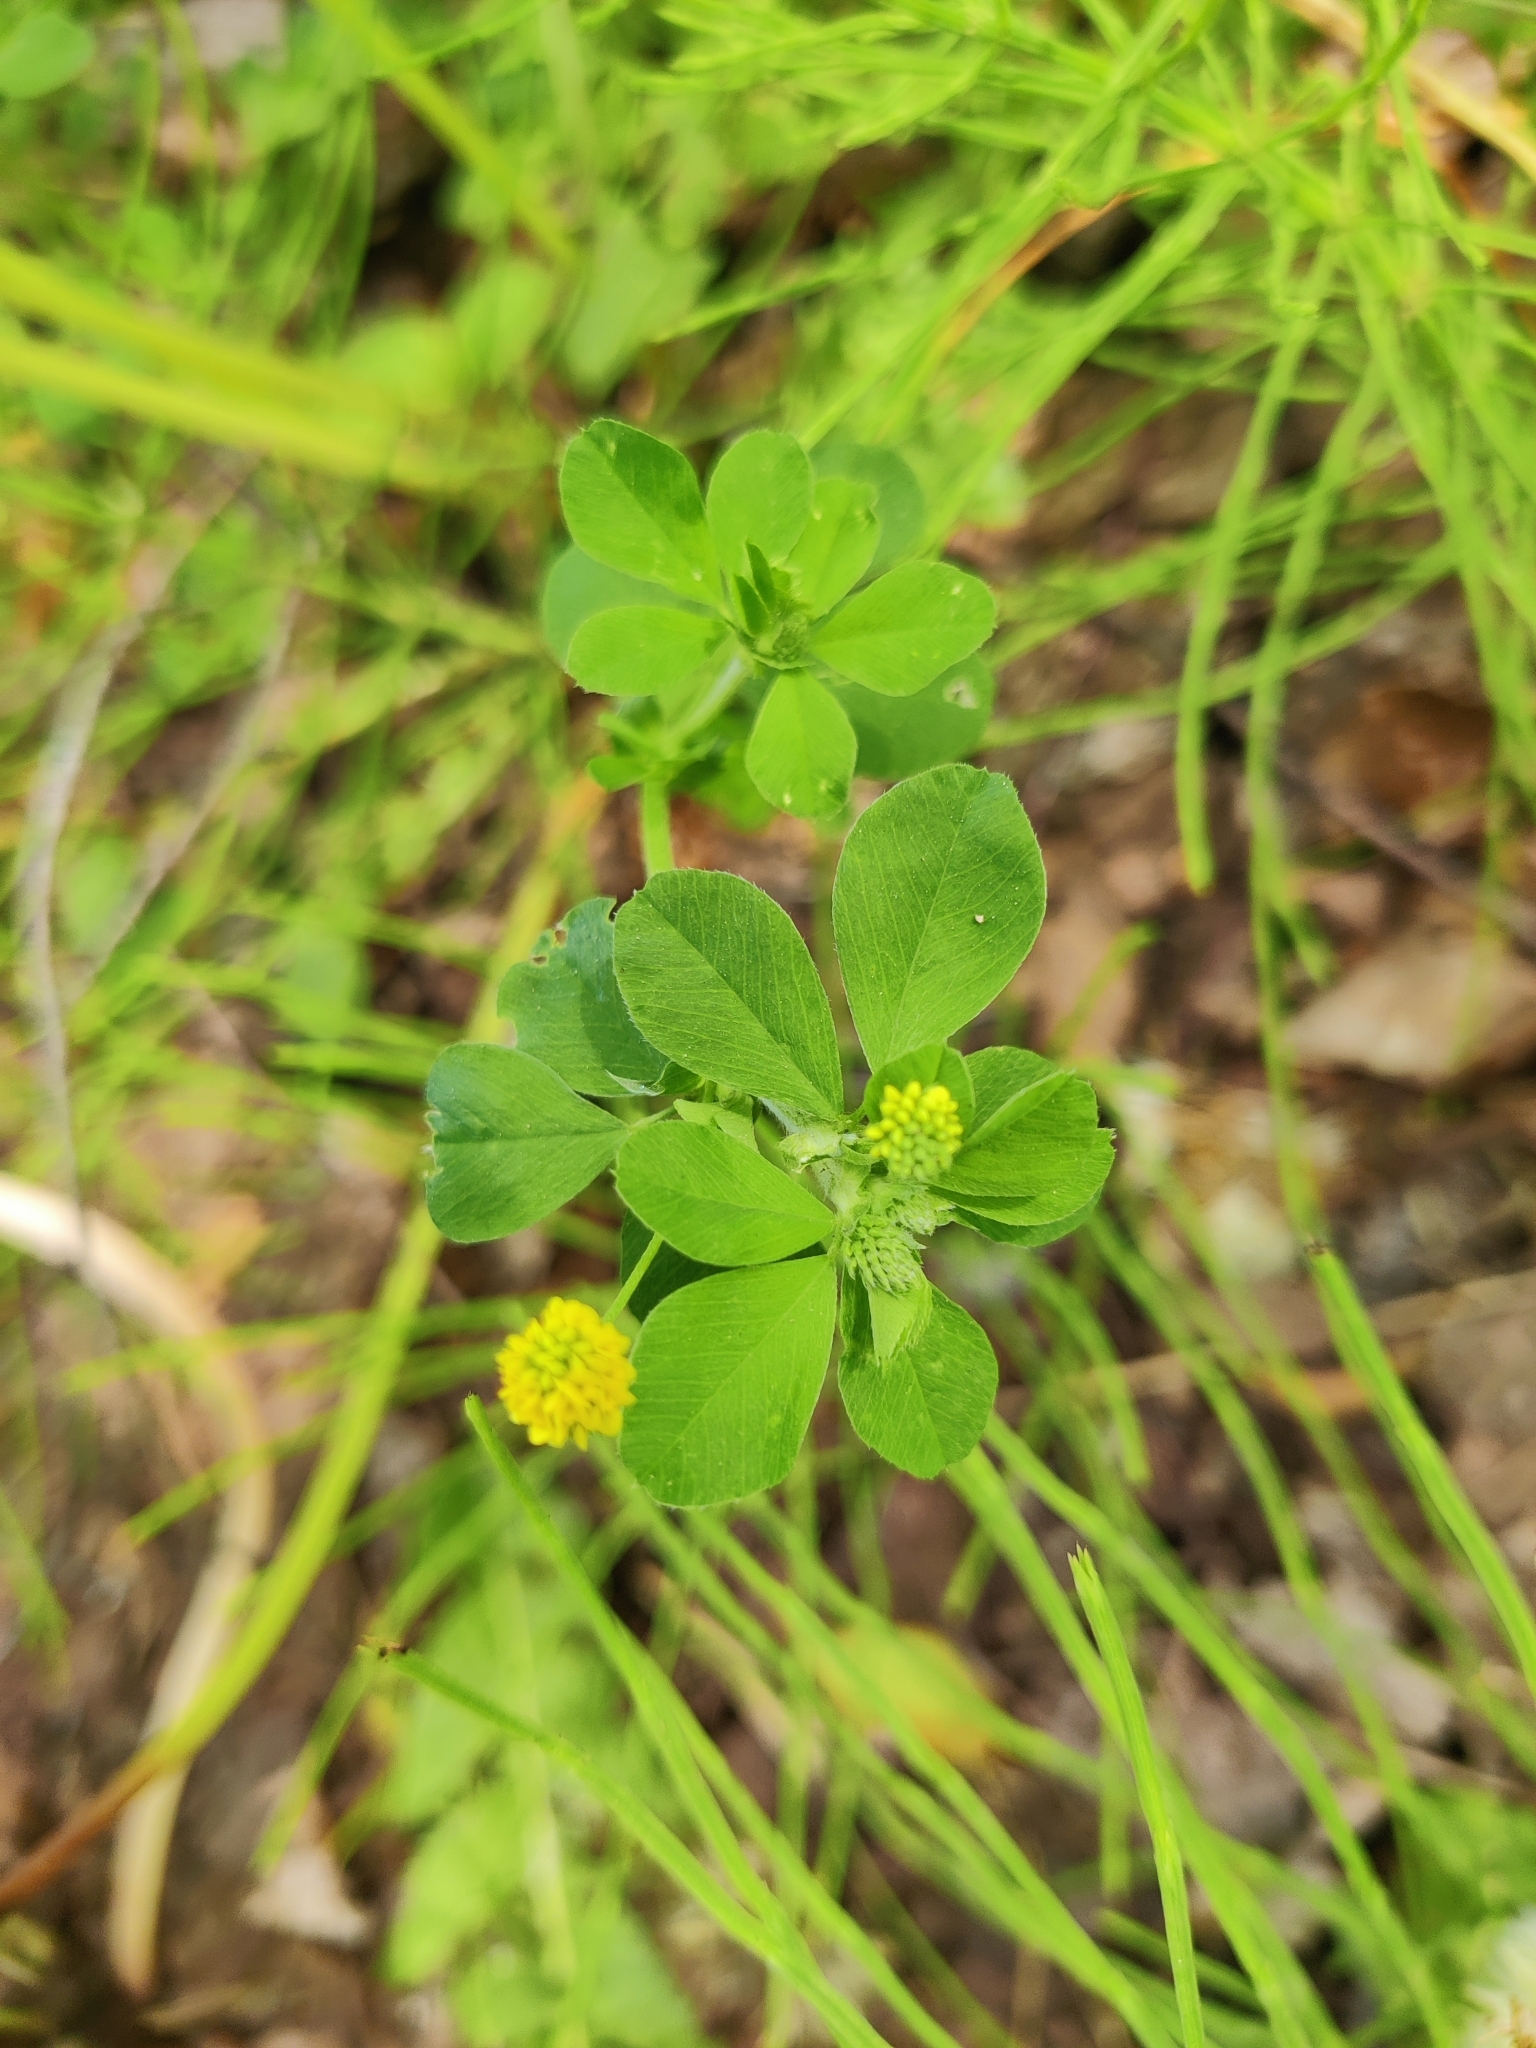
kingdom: Plantae
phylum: Tracheophyta
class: Magnoliopsida
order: Fabales
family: Fabaceae
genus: Medicago
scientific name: Medicago lupulina
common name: Black medick
